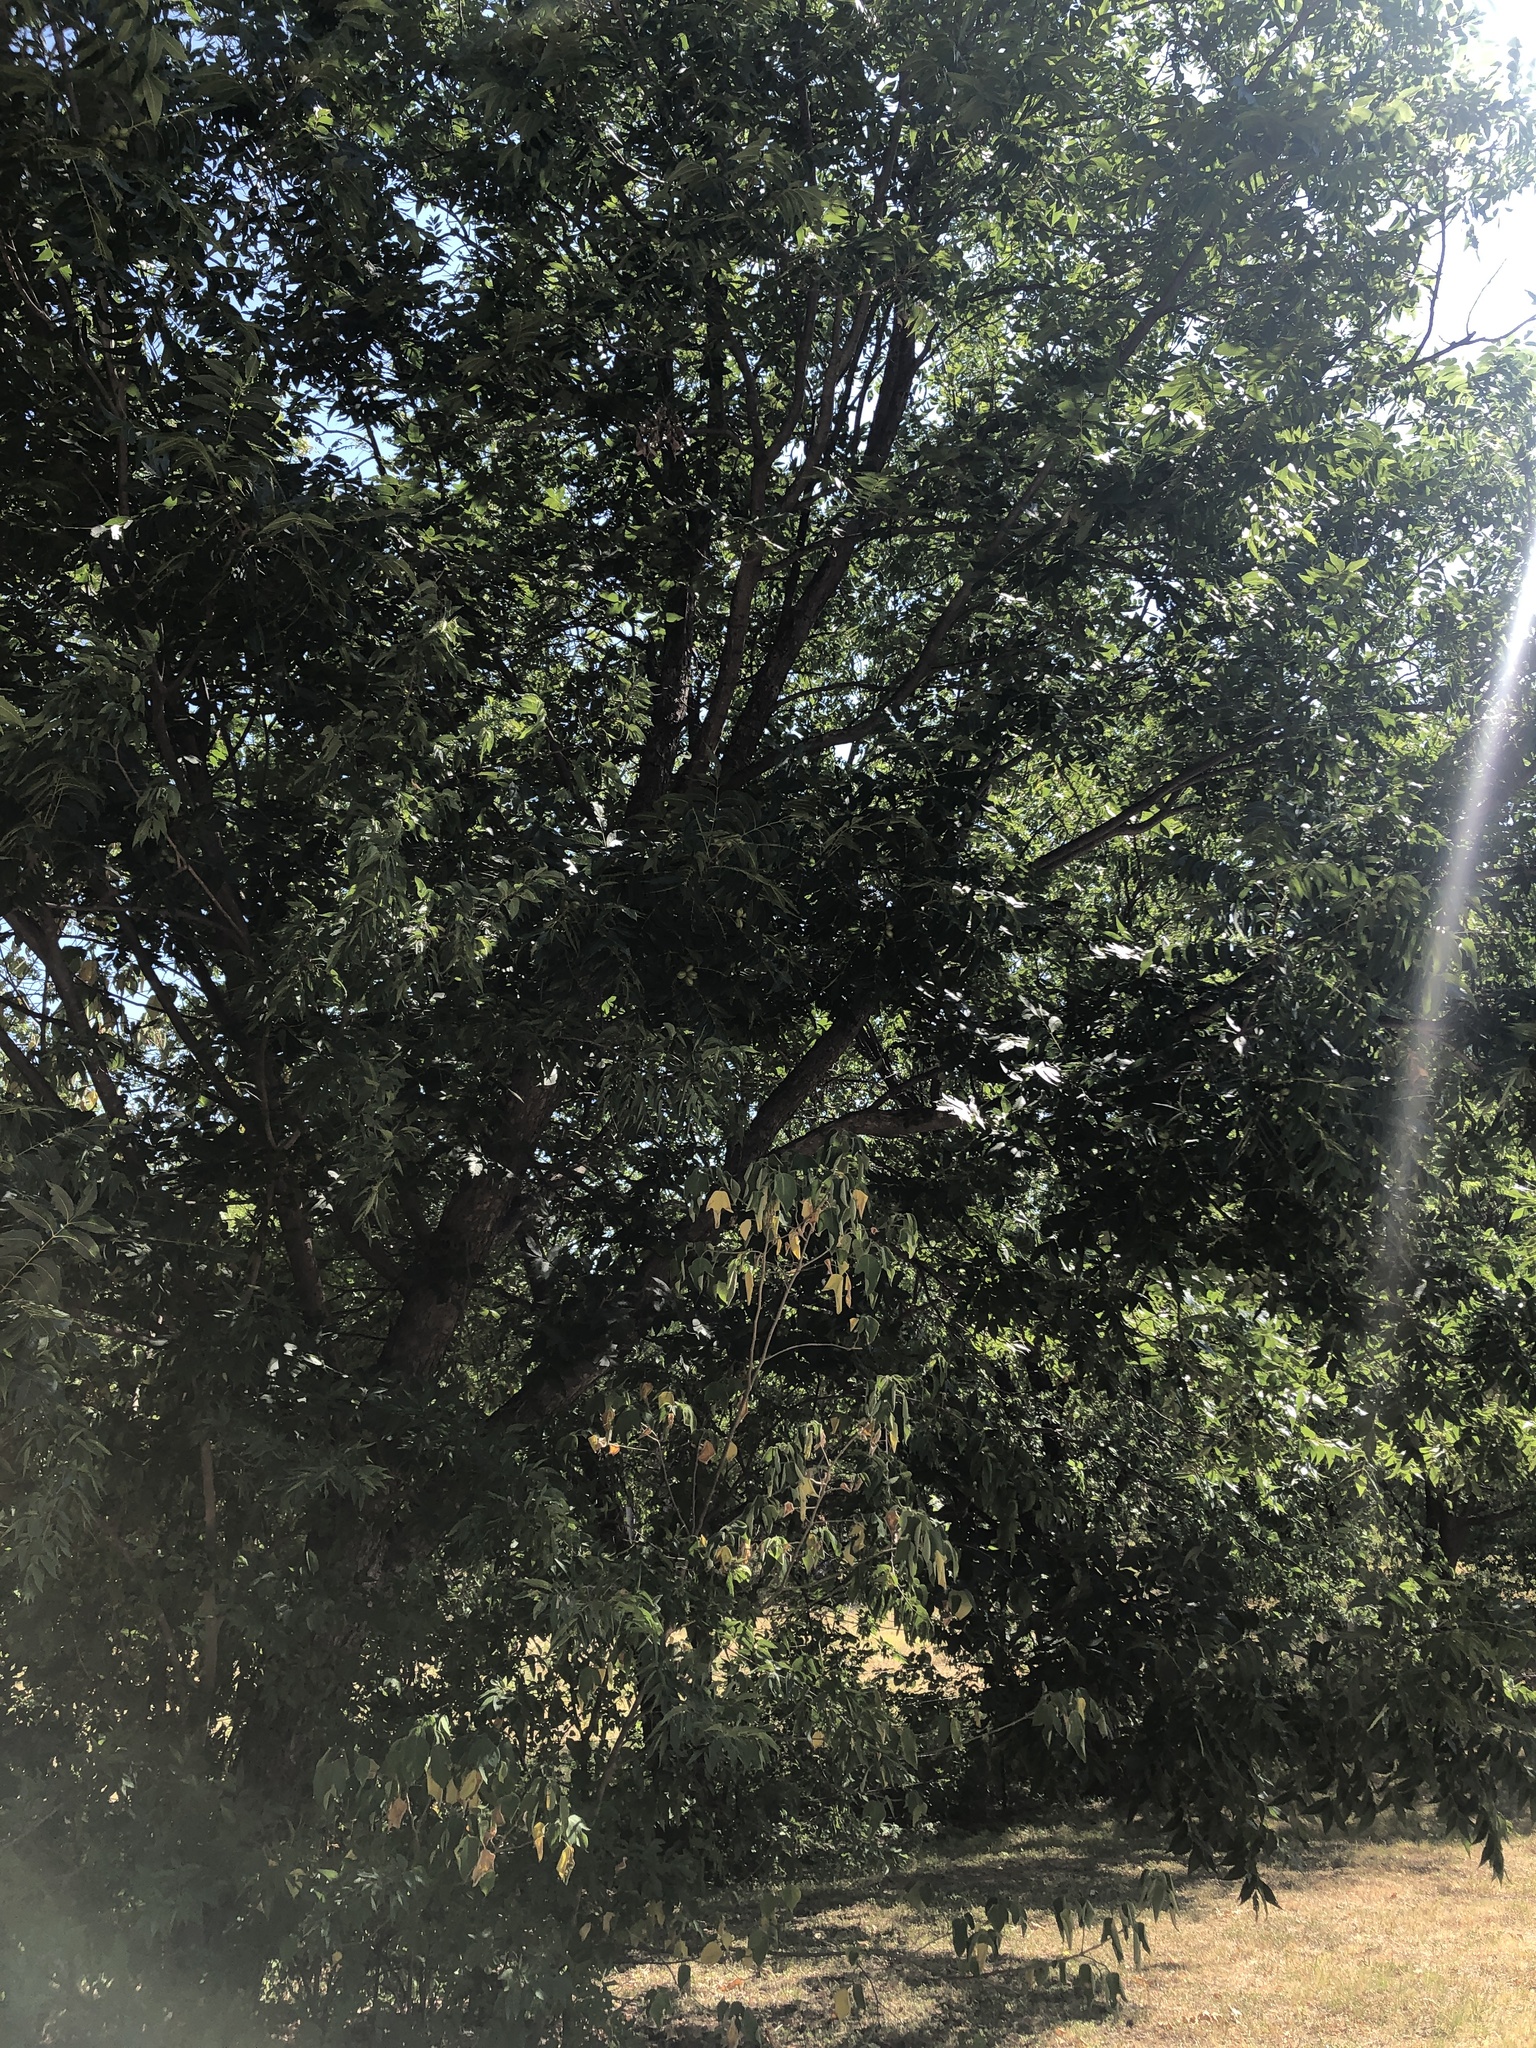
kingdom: Plantae
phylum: Tracheophyta
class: Magnoliopsida
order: Fagales
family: Juglandaceae
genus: Carya
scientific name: Carya illinoinensis
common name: Pecan
